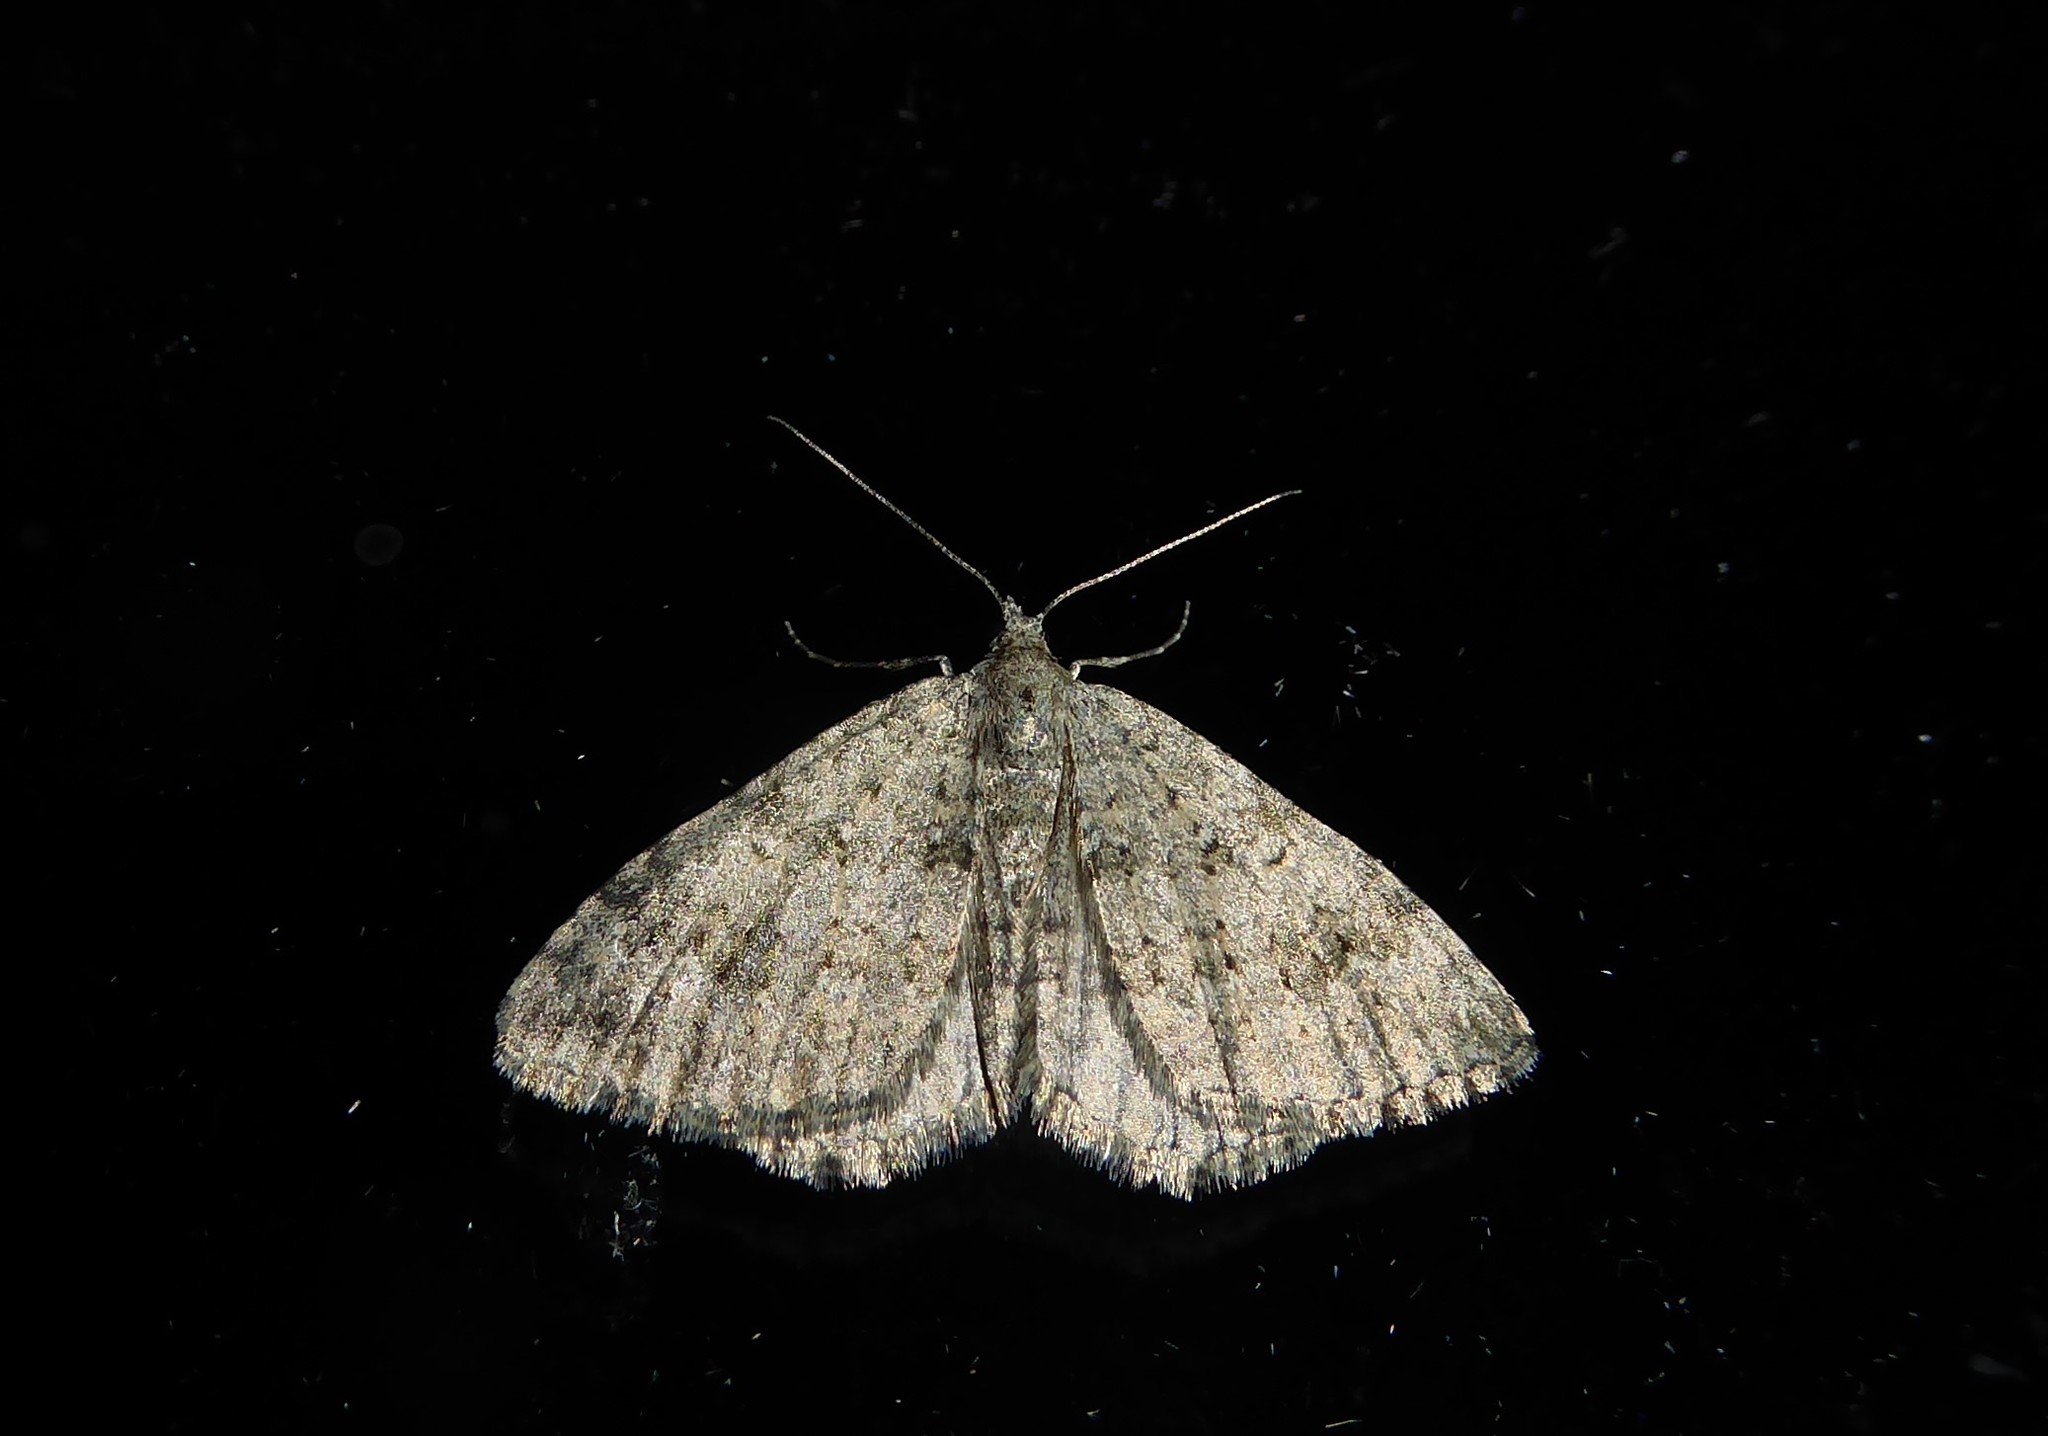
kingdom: Animalia
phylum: Arthropoda
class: Insecta
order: Lepidoptera
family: Geometridae
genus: Helastia
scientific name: Helastia corcularia
